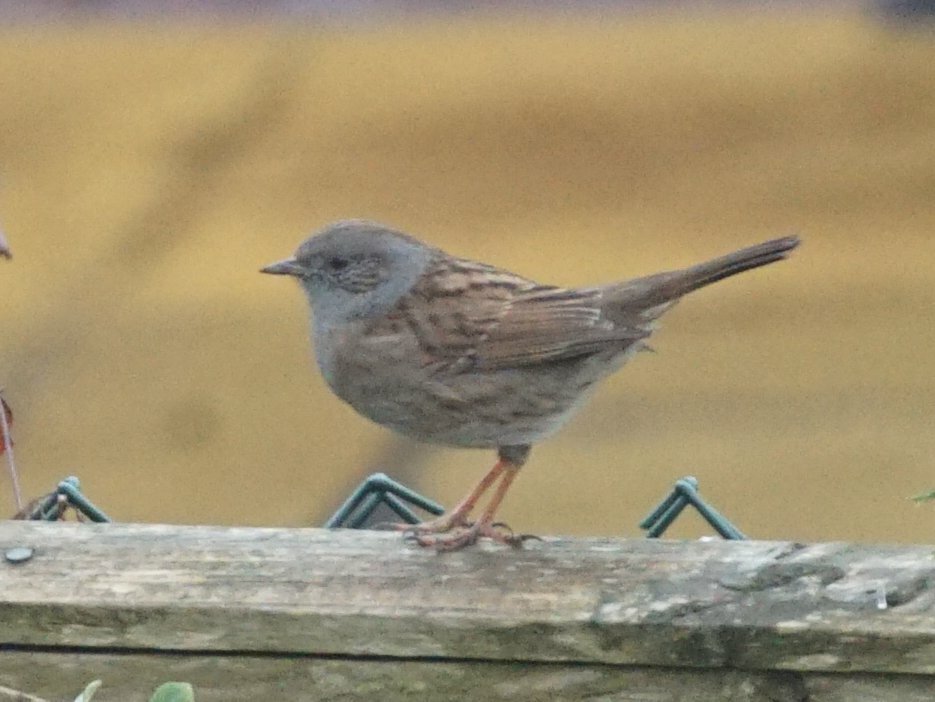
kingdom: Animalia
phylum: Chordata
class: Aves
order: Passeriformes
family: Prunellidae
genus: Prunella
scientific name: Prunella modularis
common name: Dunnock
